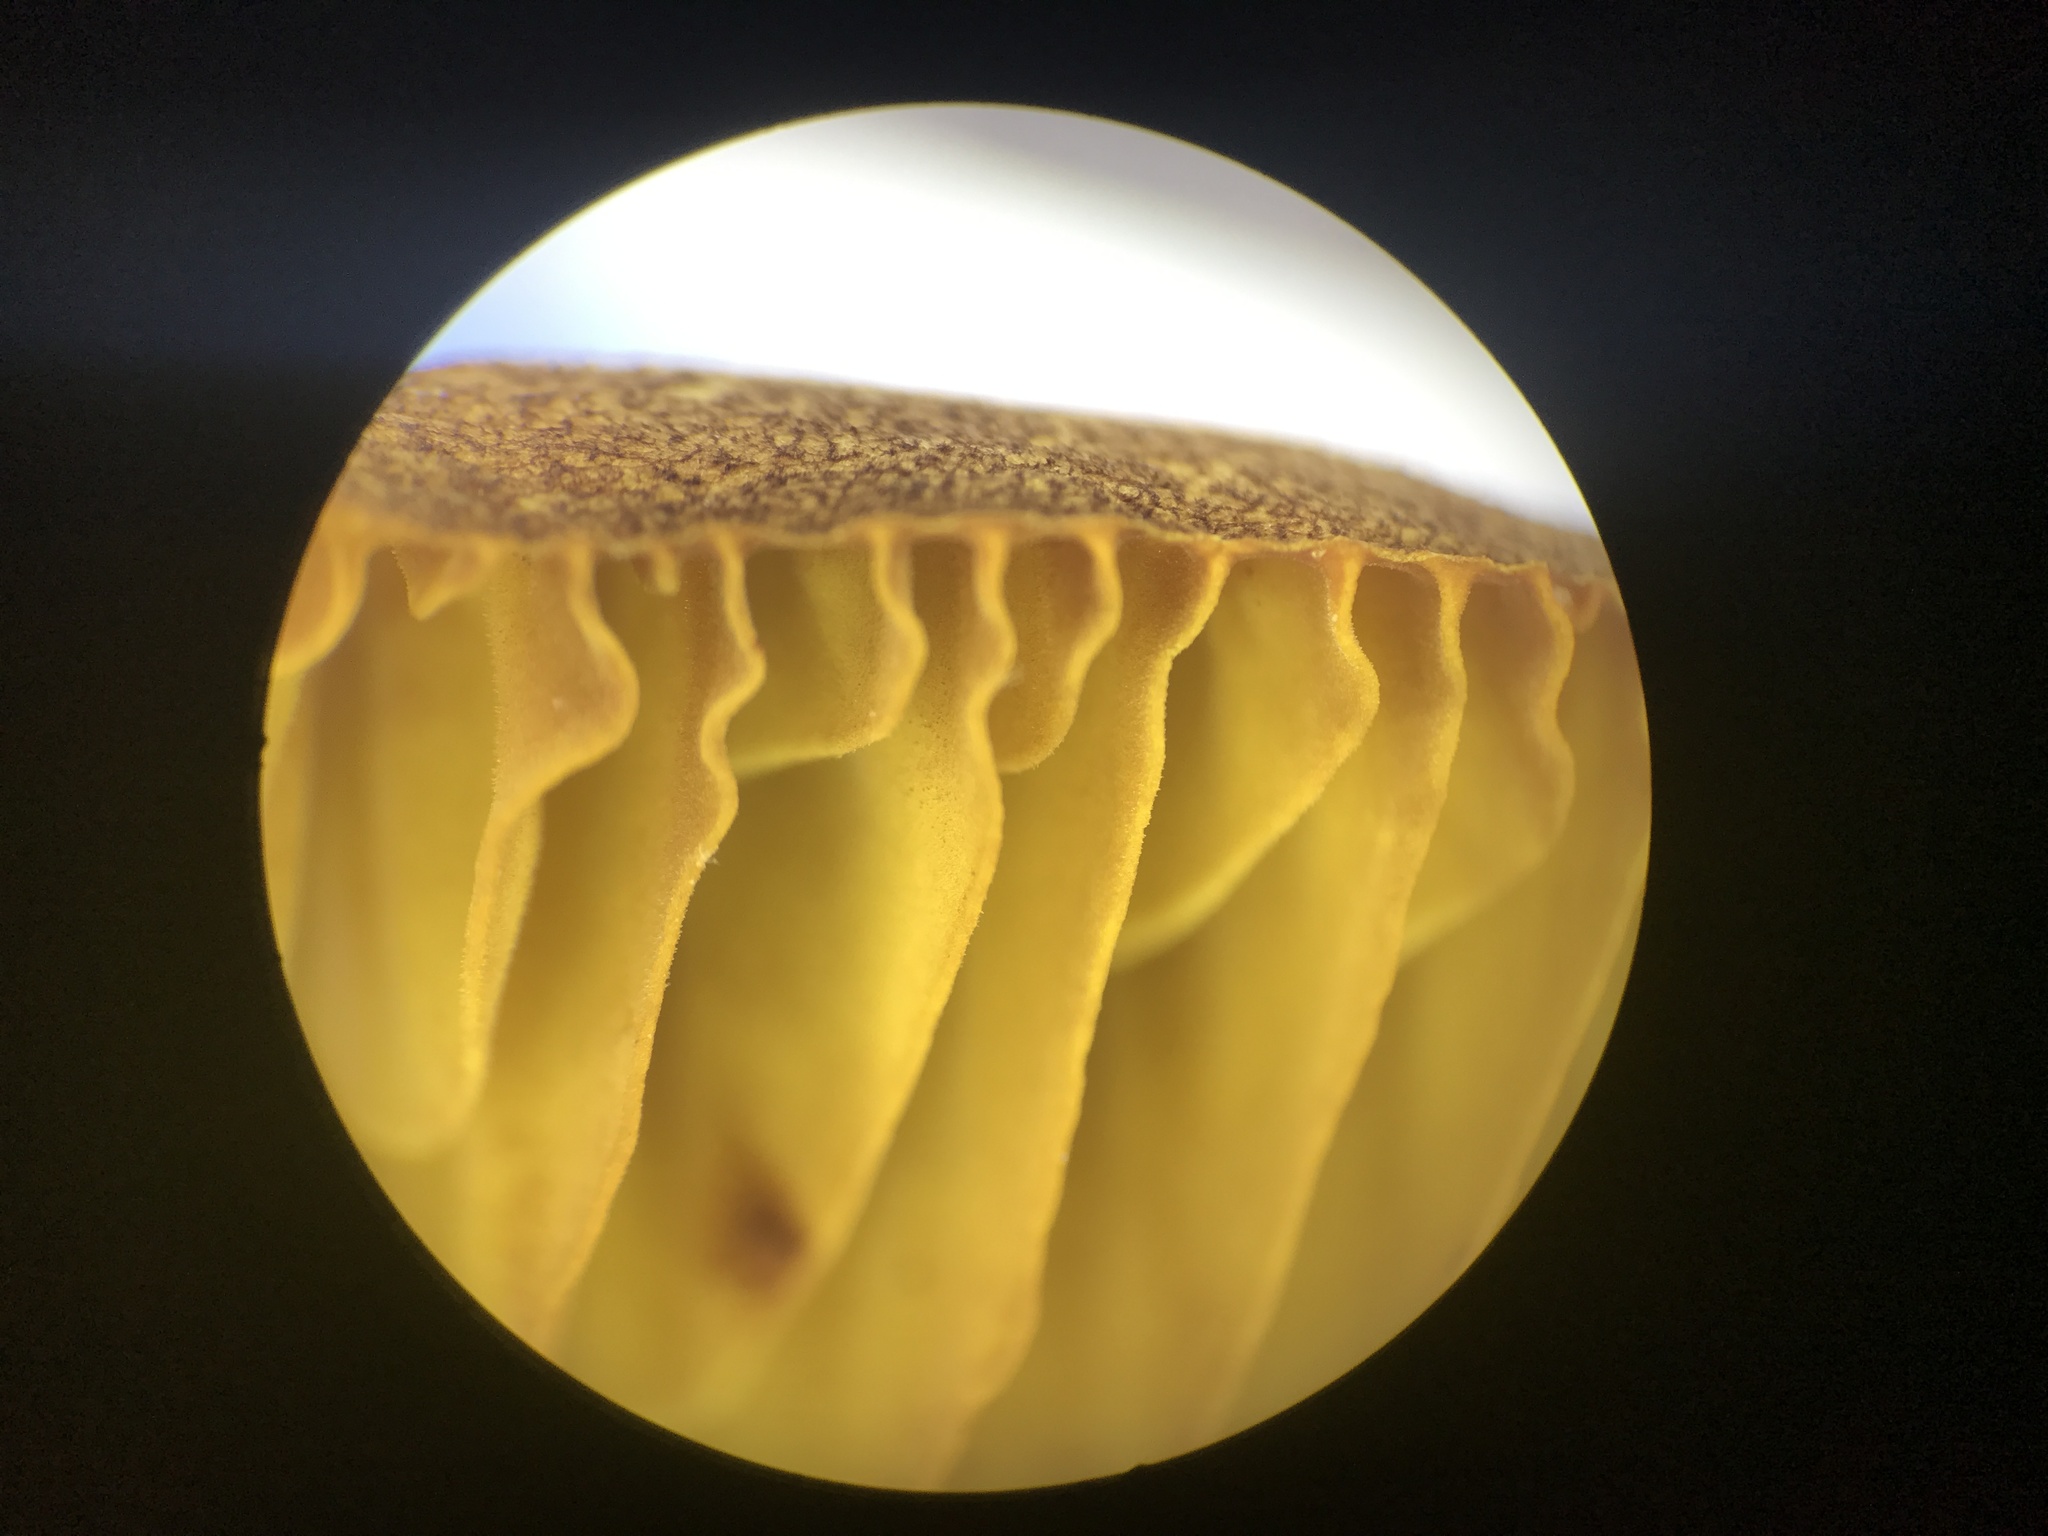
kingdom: Fungi
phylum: Basidiomycota
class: Agaricomycetes
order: Boletales
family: Boletaceae
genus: Phylloporus
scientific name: Phylloporus leucomycelinus
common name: Gilled bolete
